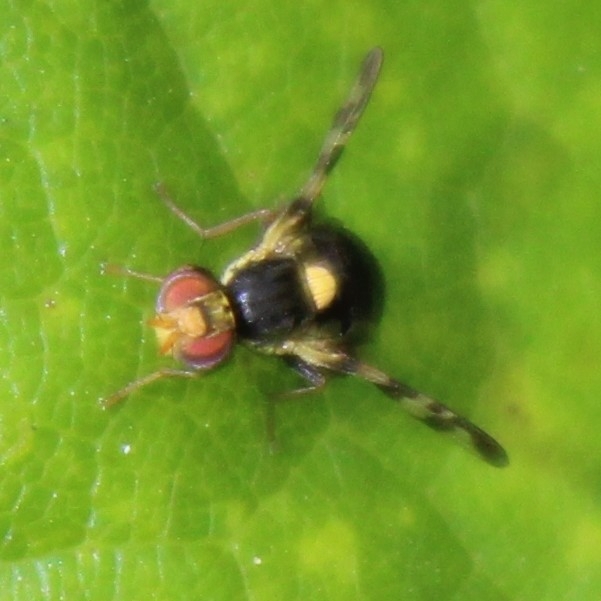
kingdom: Animalia
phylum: Arthropoda
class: Insecta
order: Diptera
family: Tephritidae
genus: Rhagoletis
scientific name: Rhagoletis cerasi
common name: European cherry fruit fly
